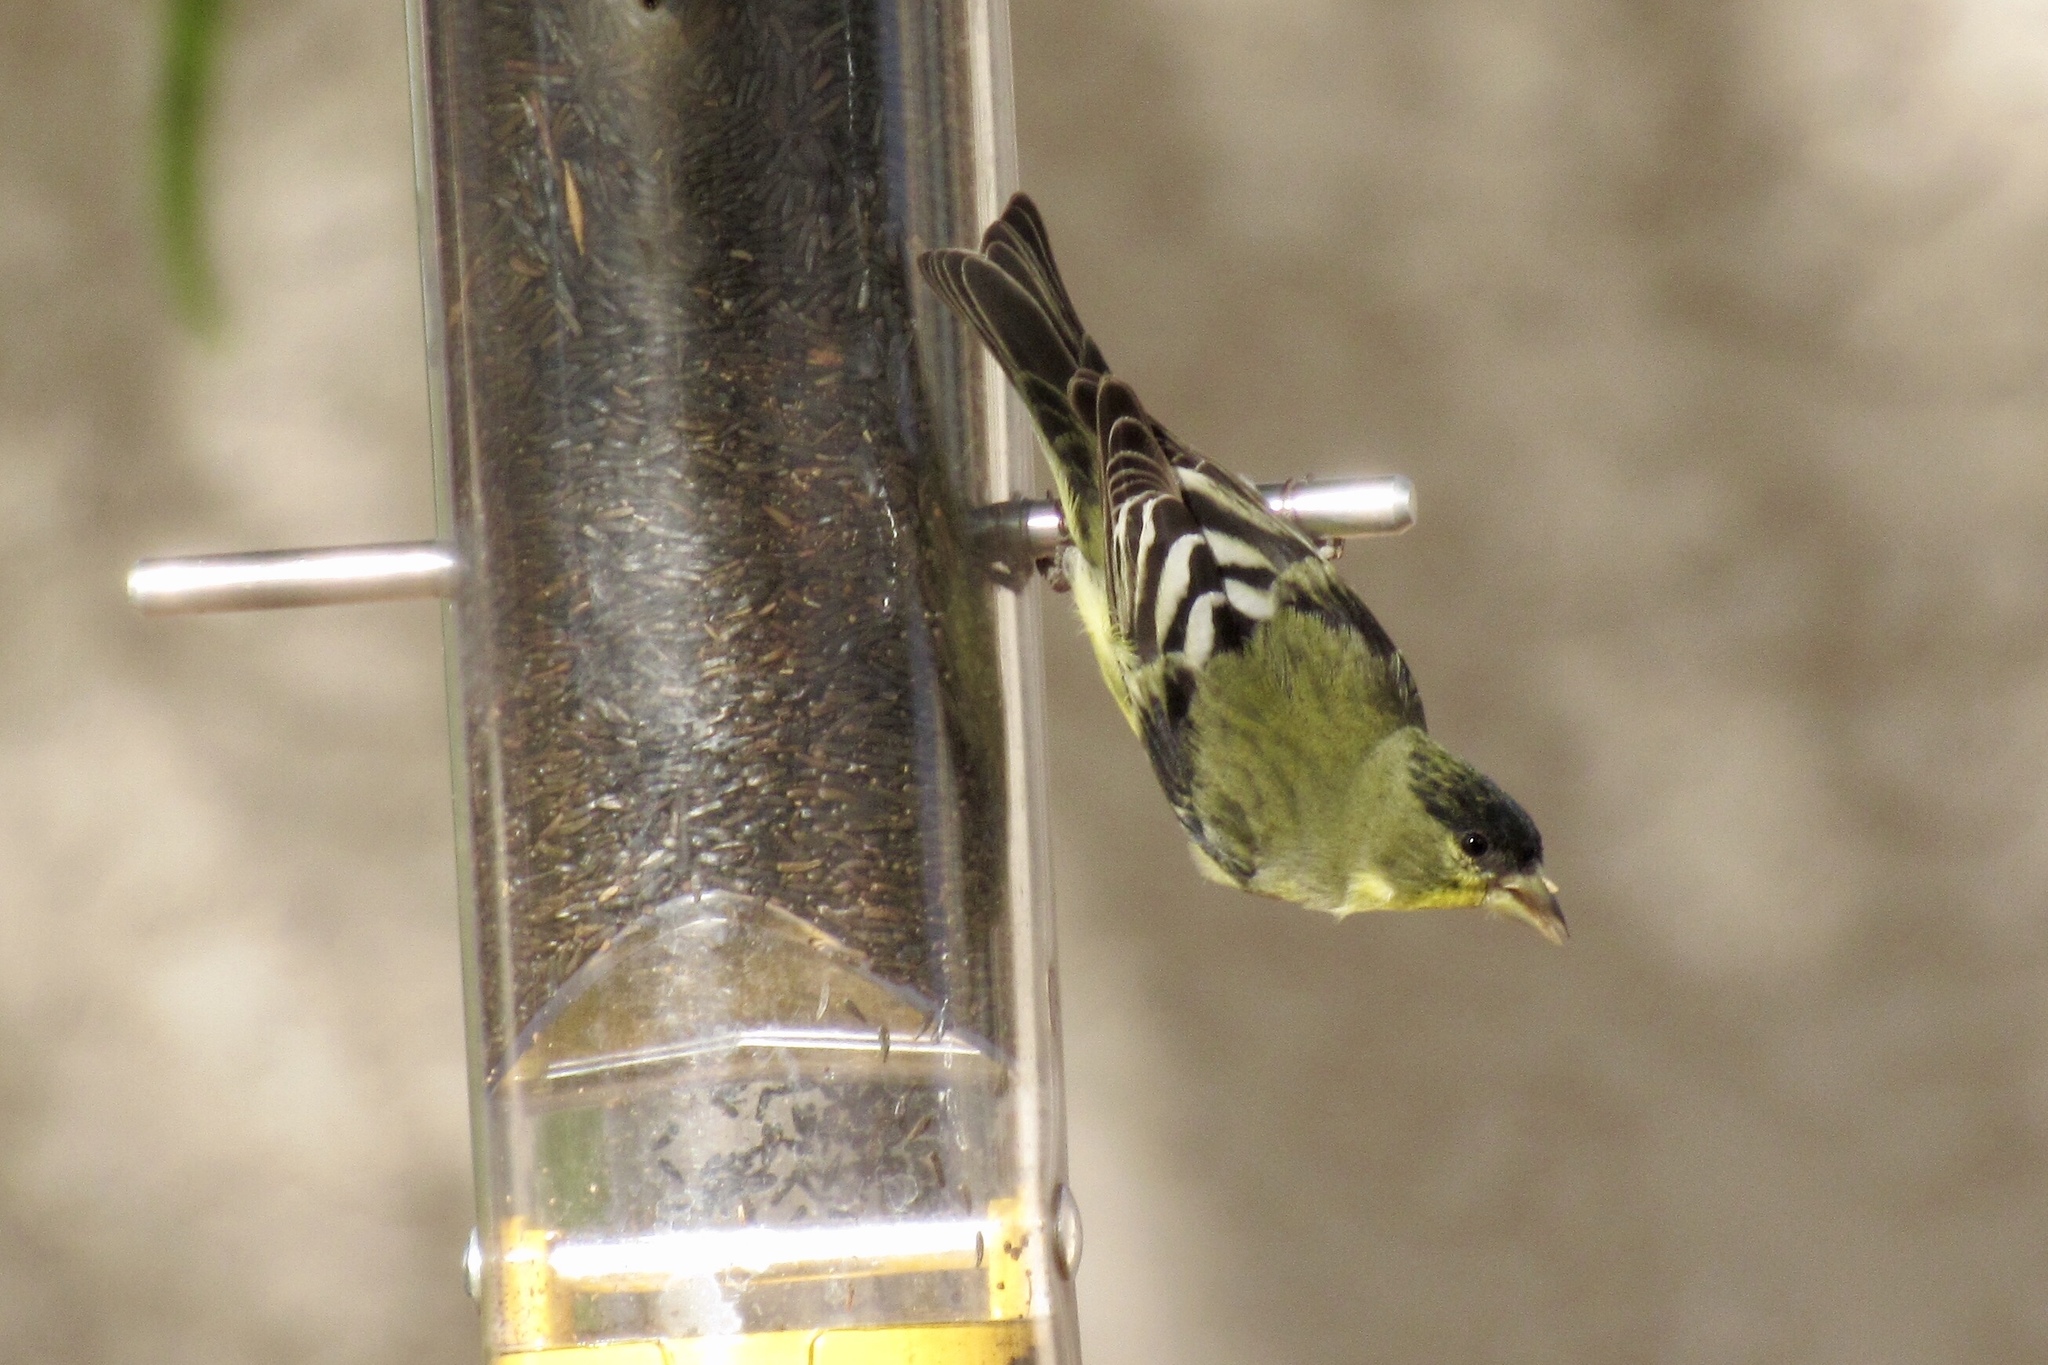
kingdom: Animalia
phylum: Chordata
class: Aves
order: Passeriformes
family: Fringillidae
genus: Spinus
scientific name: Spinus psaltria
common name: Lesser goldfinch
